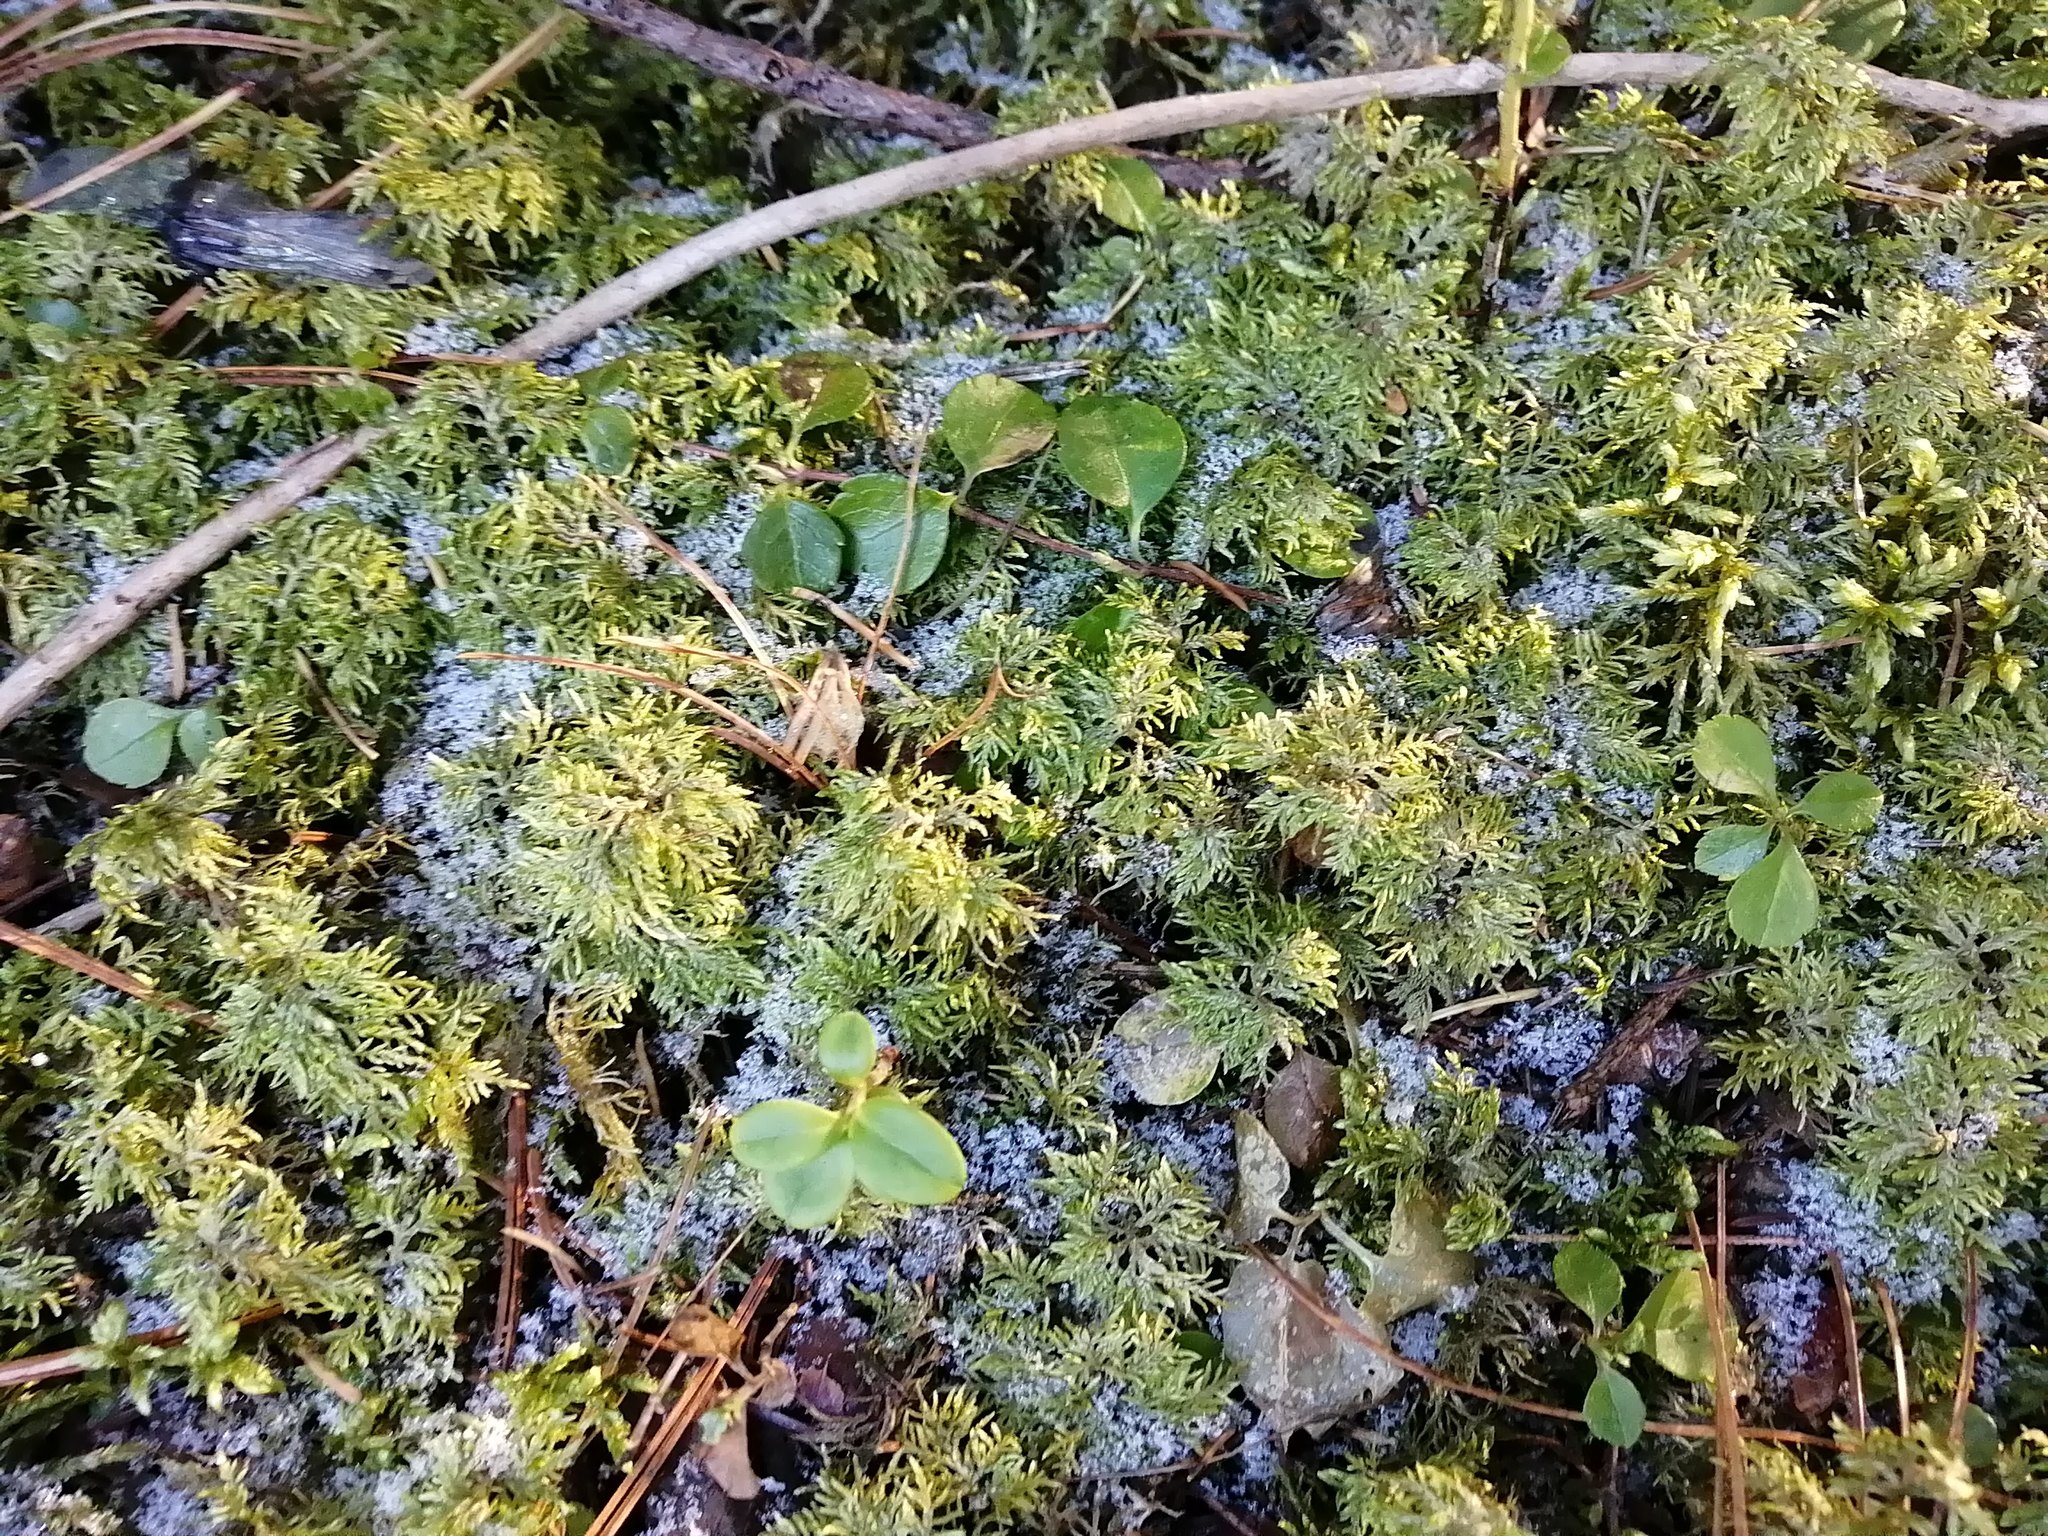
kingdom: Plantae
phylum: Bryophyta
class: Bryopsida
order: Hypnales
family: Hylocomiaceae
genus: Hylocomium
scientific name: Hylocomium splendens
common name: Stairstep moss
